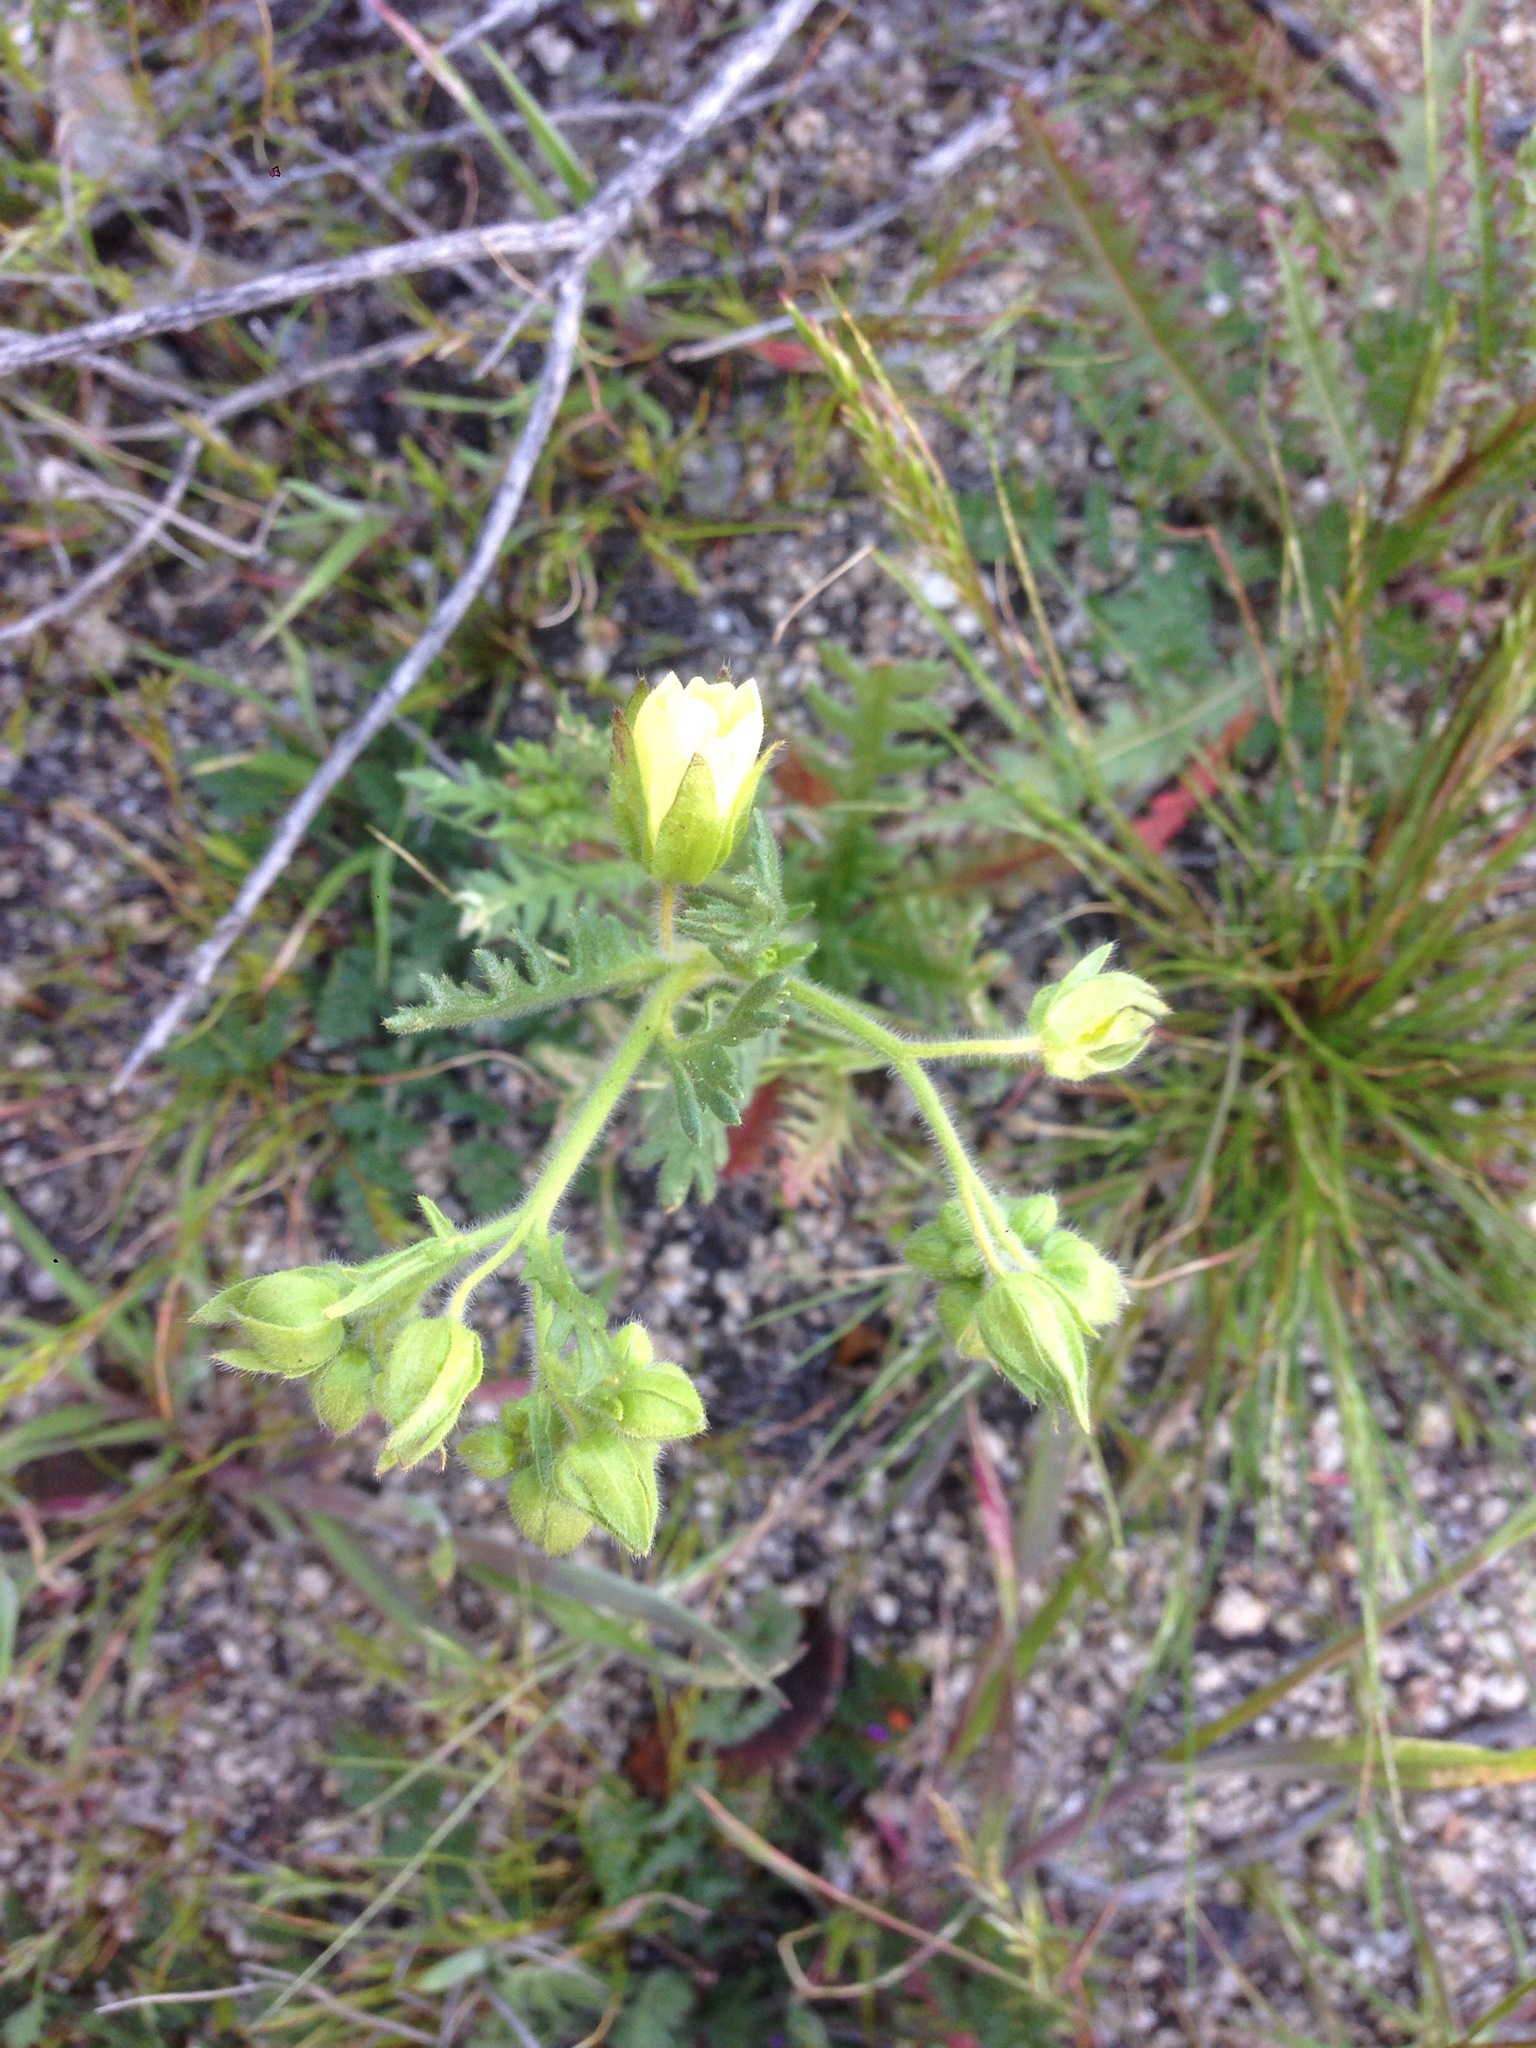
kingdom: Plantae
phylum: Tracheophyta
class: Magnoliopsida
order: Boraginales
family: Hydrophyllaceae
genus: Emmenanthe
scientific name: Emmenanthe penduliflora
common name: Whispering-bells
